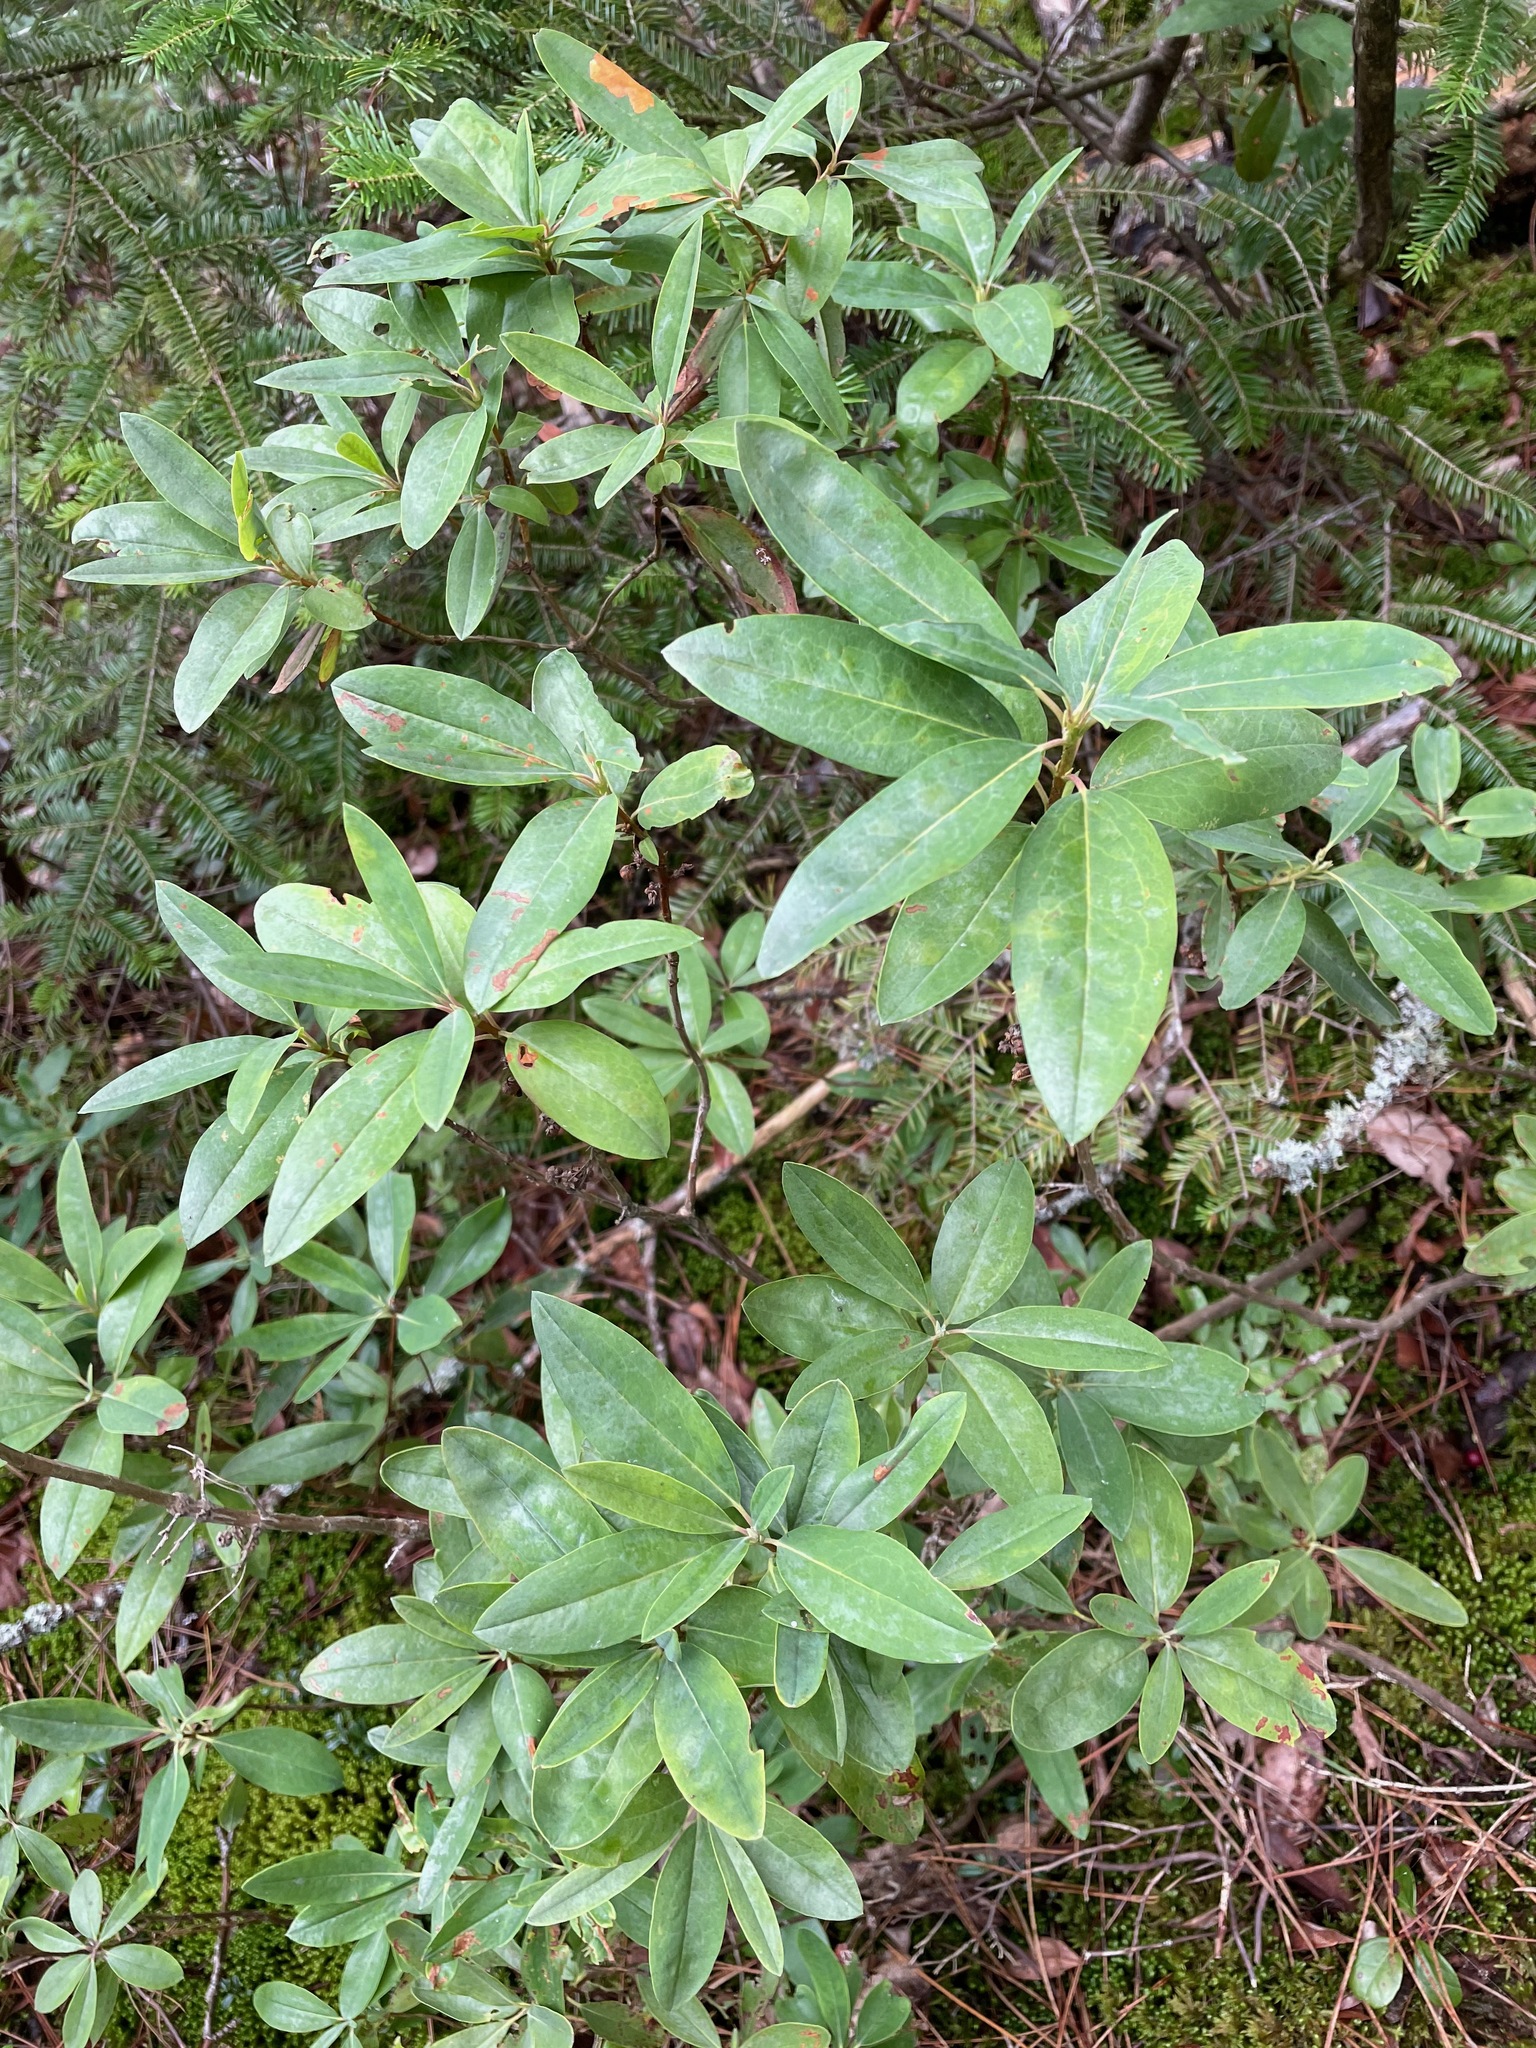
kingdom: Plantae
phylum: Tracheophyta
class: Magnoliopsida
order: Ericales
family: Ericaceae
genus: Kalmia
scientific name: Kalmia angustifolia
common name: Sheep-laurel
